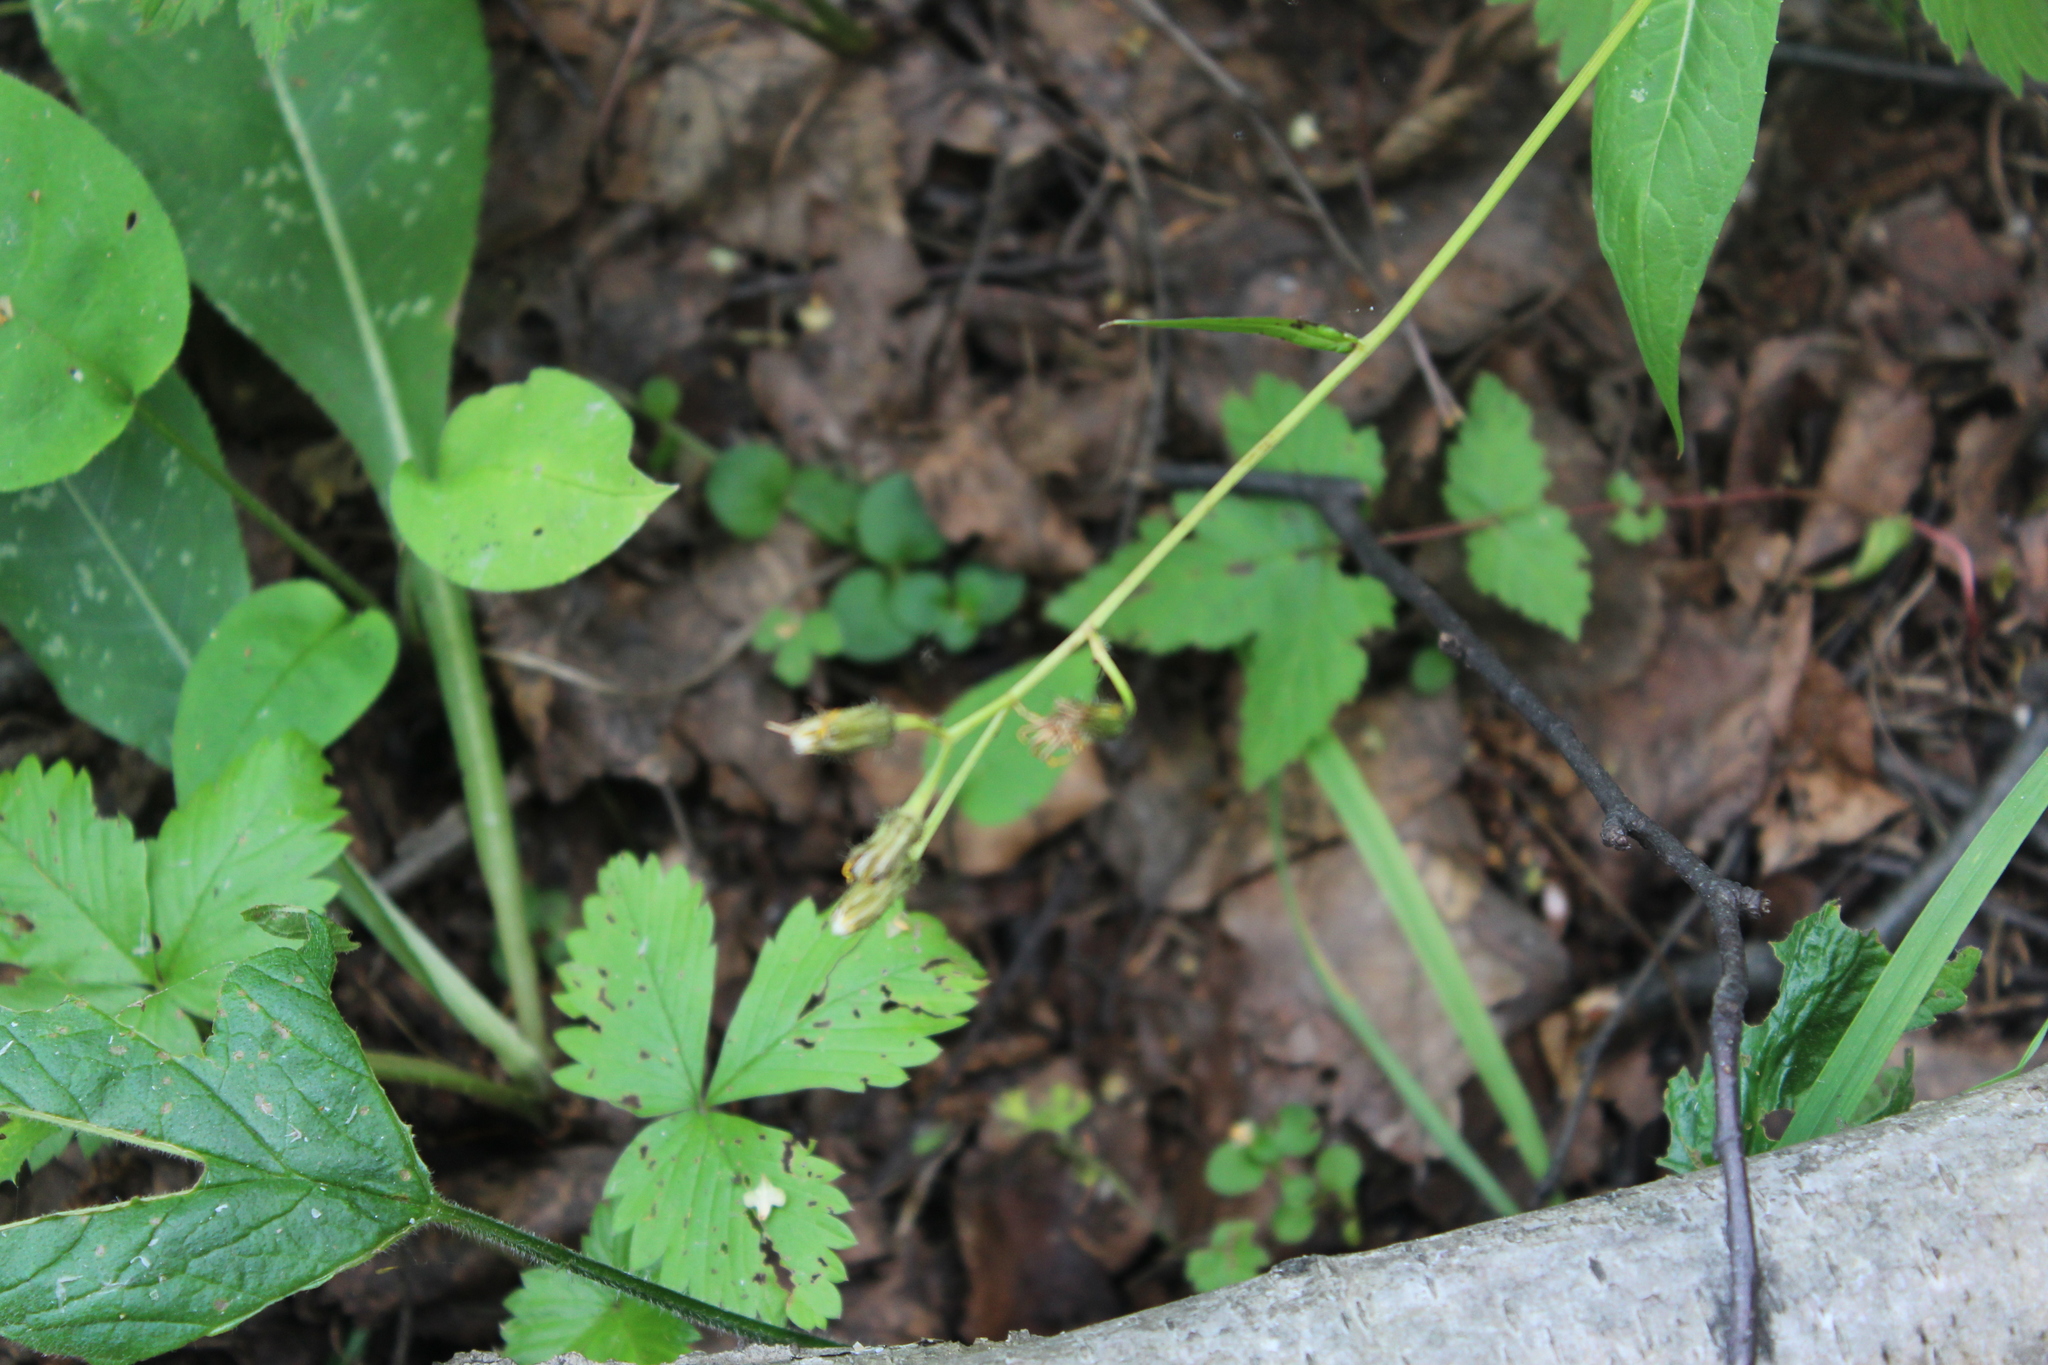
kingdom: Plantae
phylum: Tracheophyta
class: Magnoliopsida
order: Asterales
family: Asteraceae
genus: Crepis
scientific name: Crepis paludosa
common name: Marsh hawk's-beard
